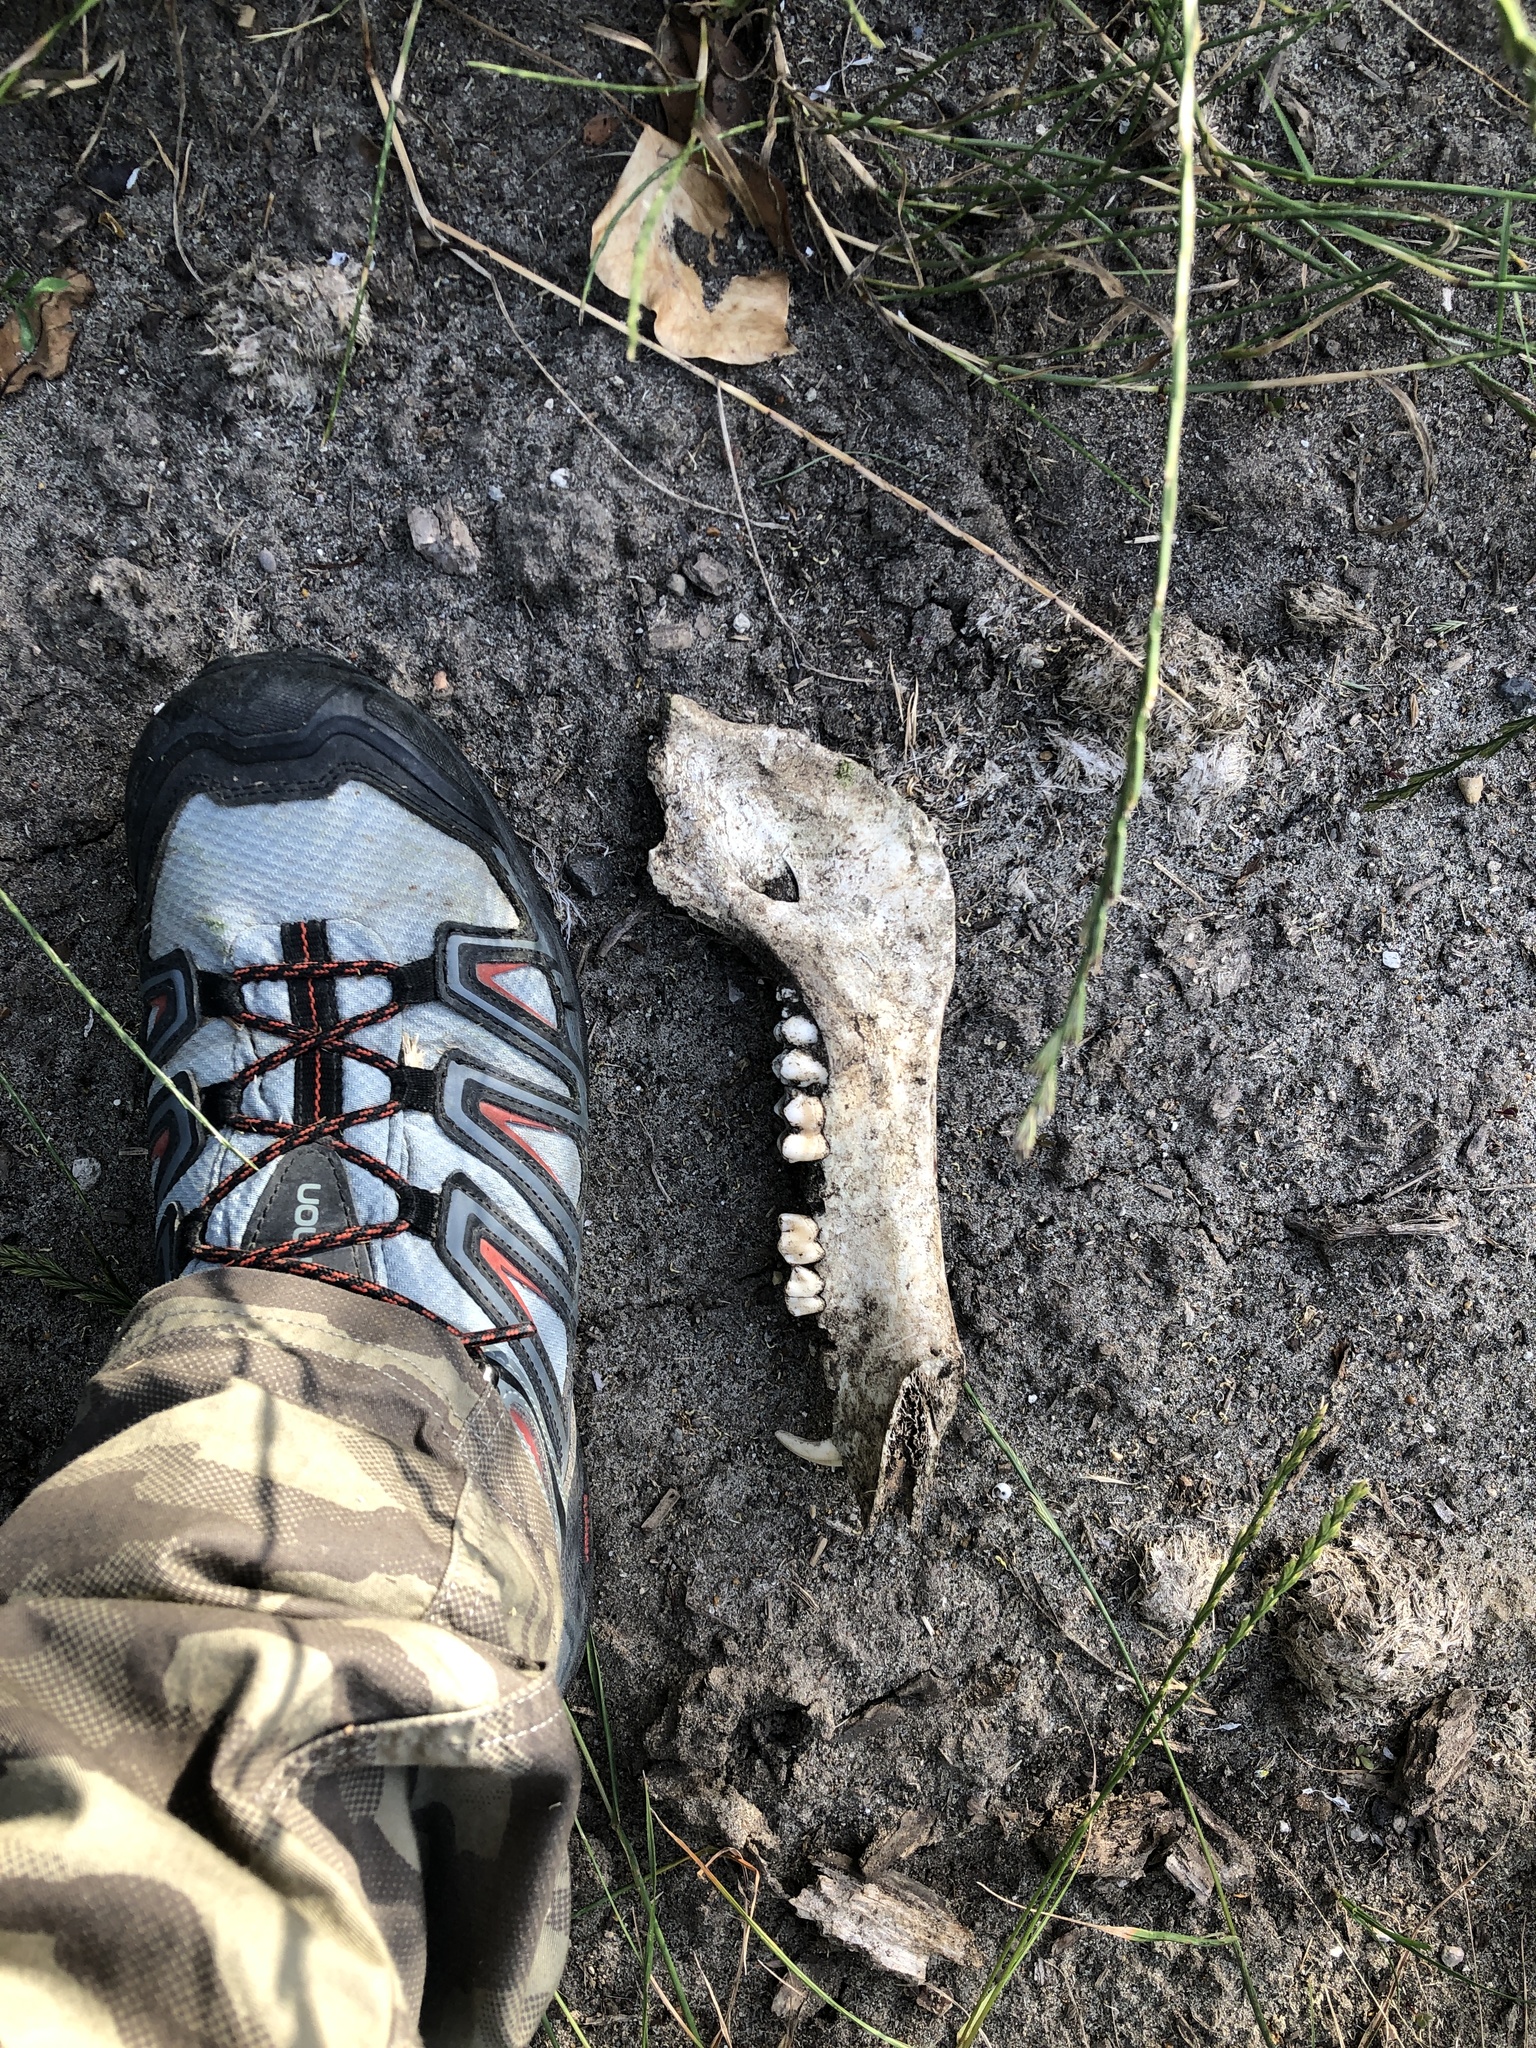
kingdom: Animalia
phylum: Chordata
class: Mammalia
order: Artiodactyla
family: Suidae
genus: Sus
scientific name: Sus scrofa
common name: Wild boar
